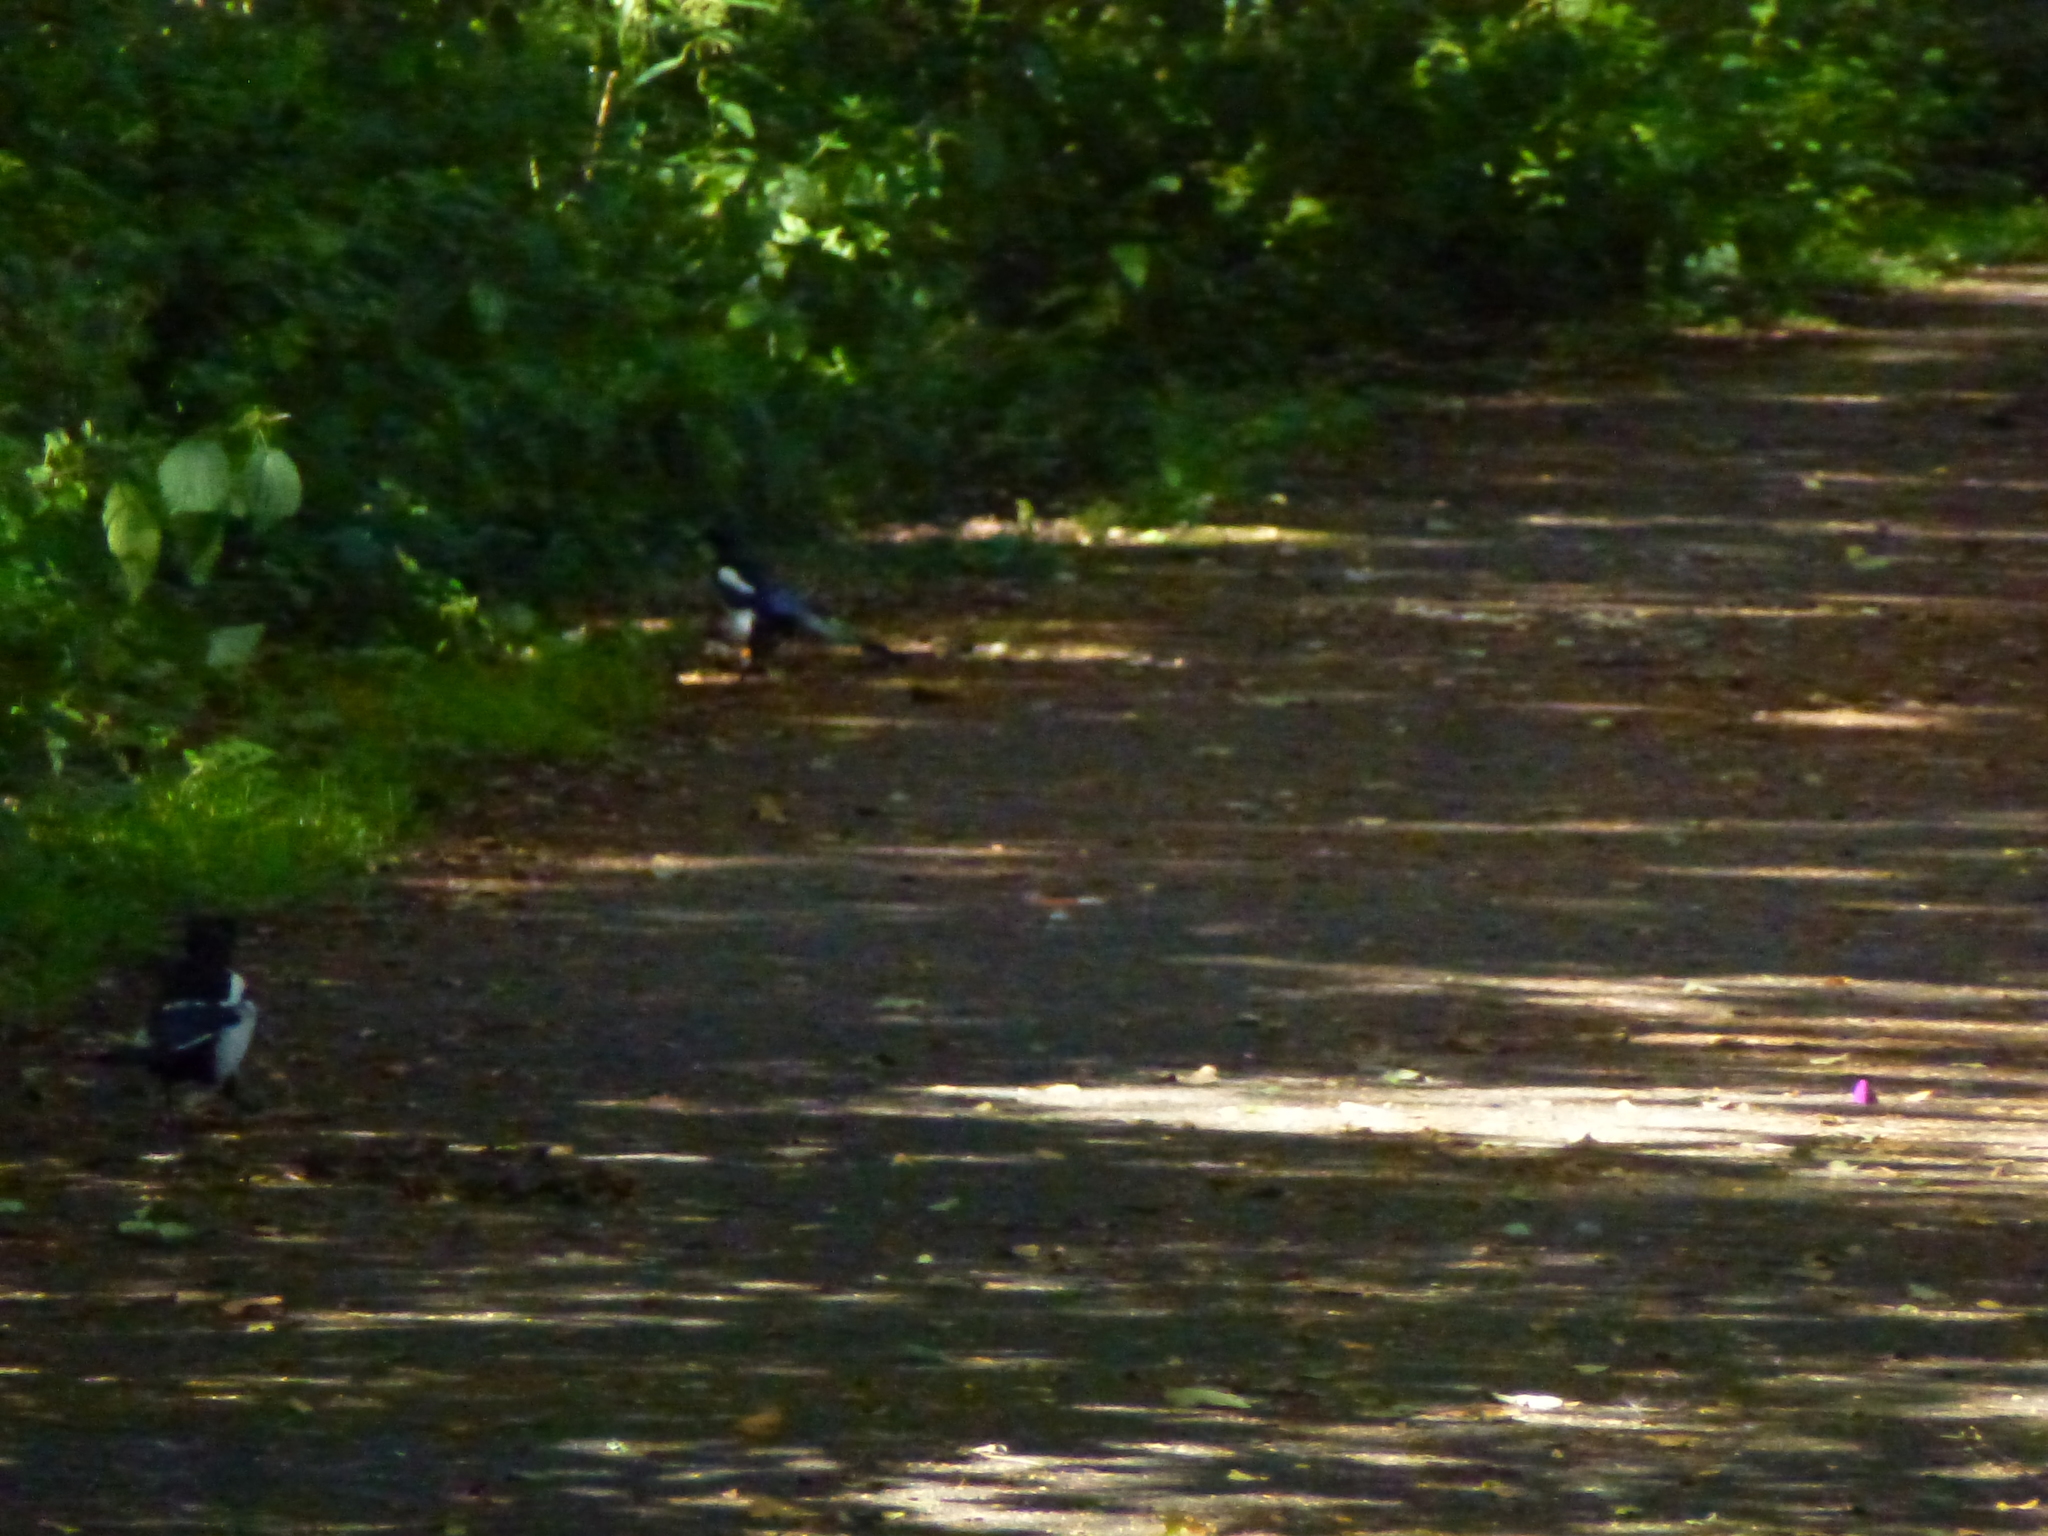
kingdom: Animalia
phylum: Chordata
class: Aves
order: Passeriformes
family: Corvidae
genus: Pica
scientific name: Pica pica
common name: Eurasian magpie
